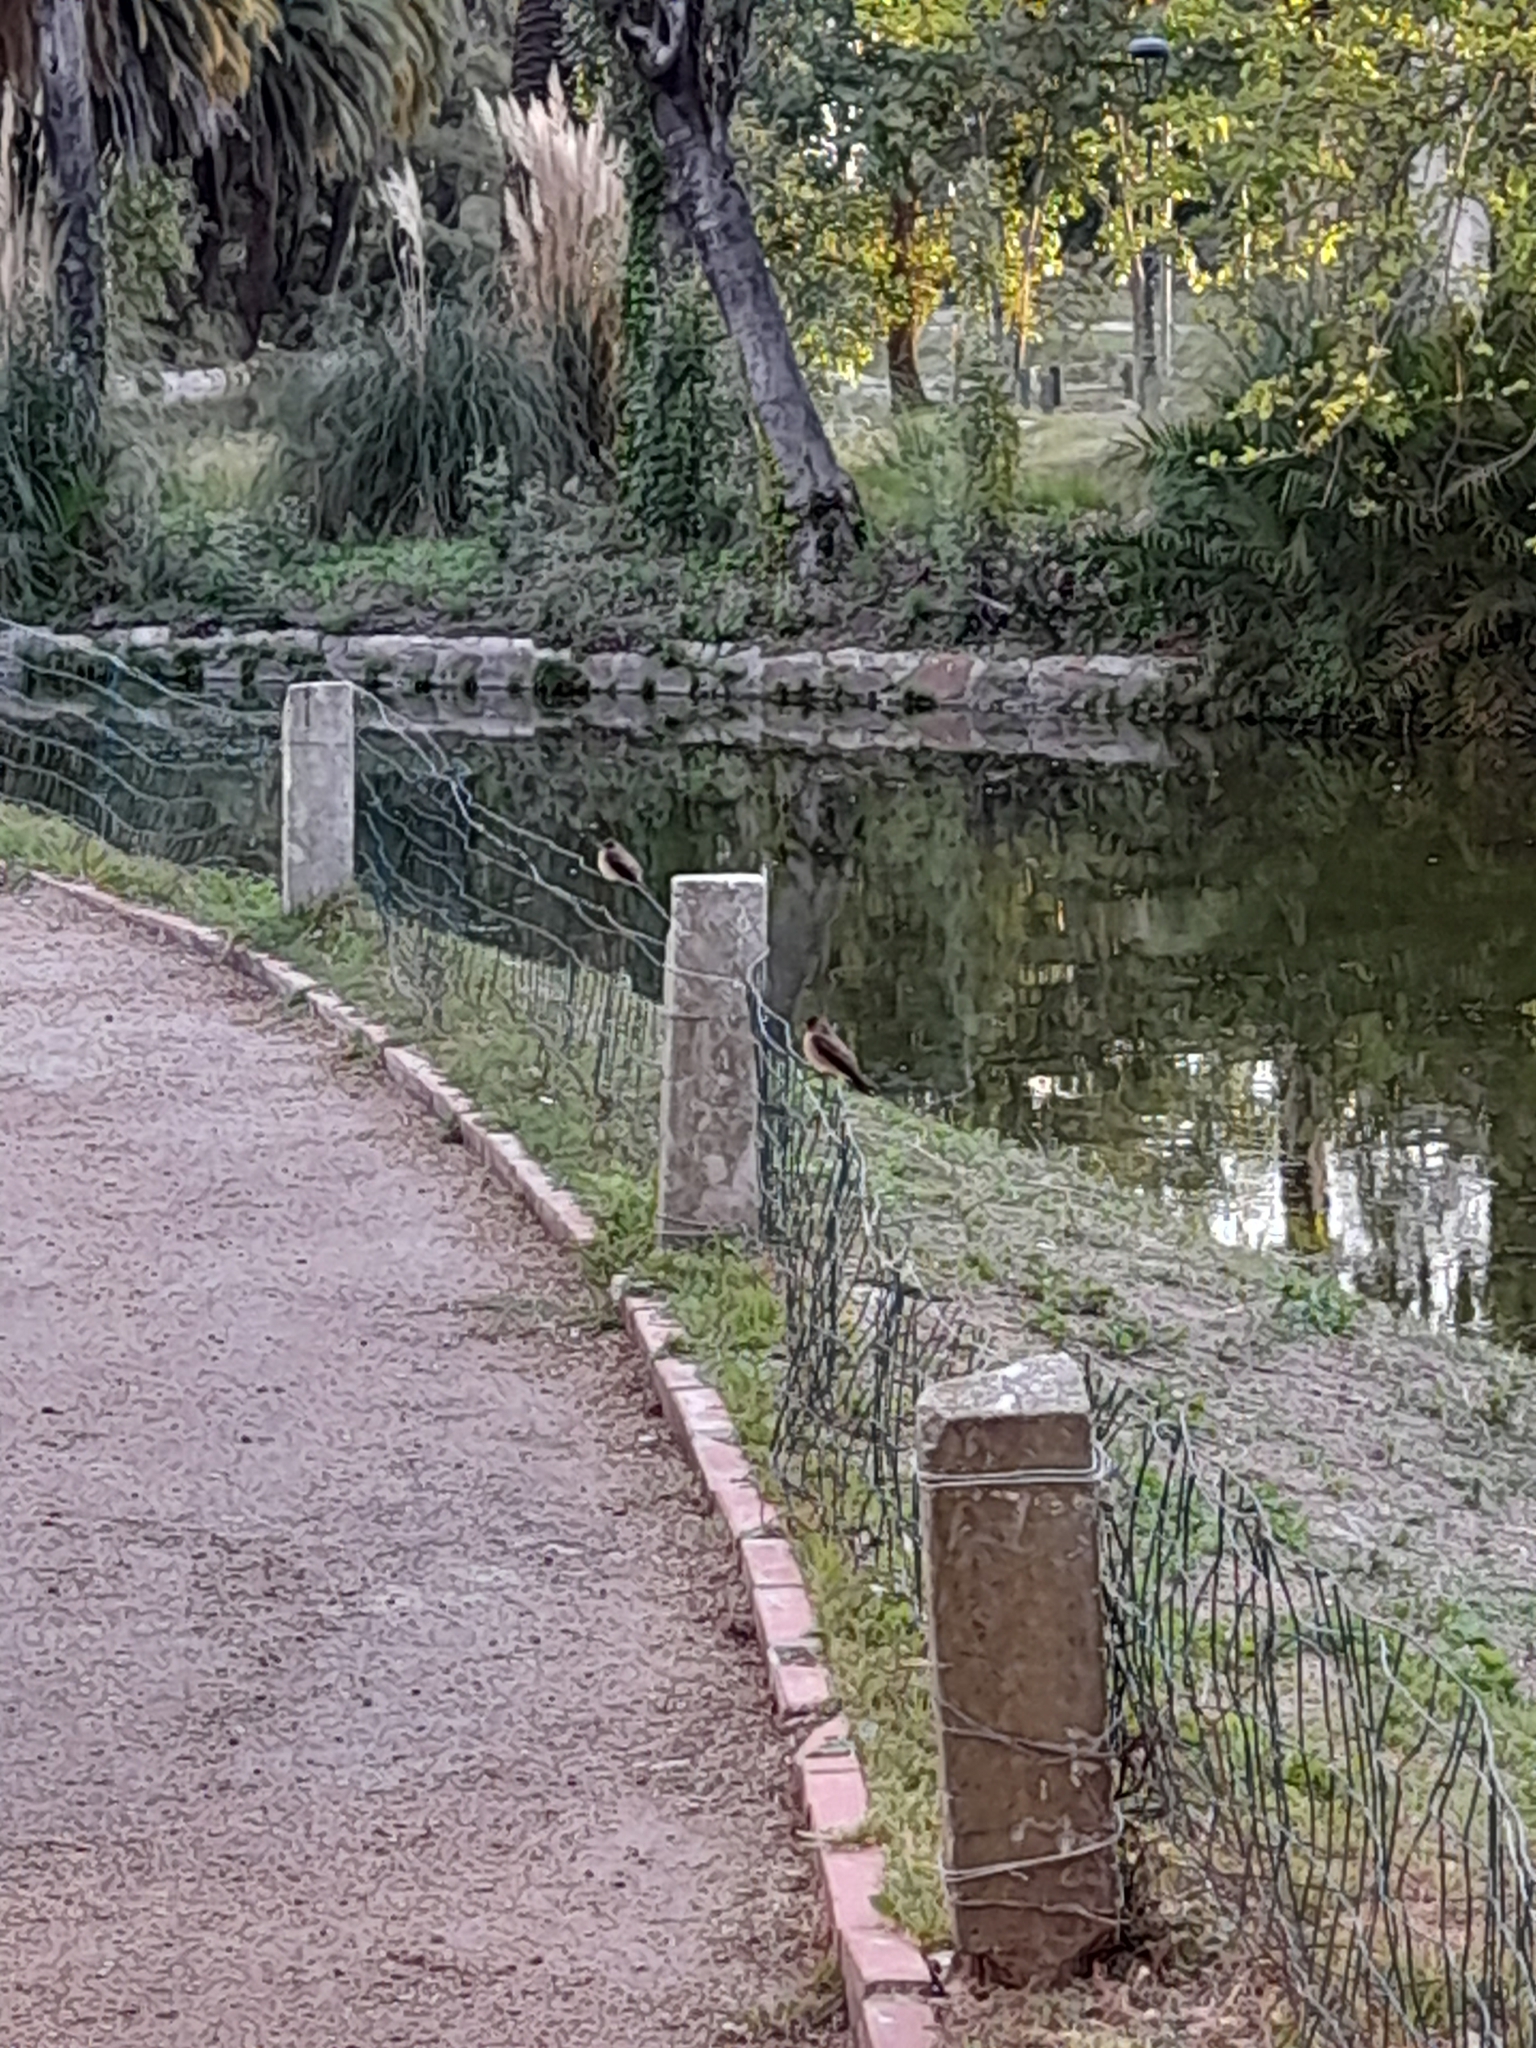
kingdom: Animalia
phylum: Chordata
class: Aves
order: Passeriformes
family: Hirundinidae
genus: Stelgidopteryx
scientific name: Stelgidopteryx ruficollis
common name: Southern rough-winged swallow
